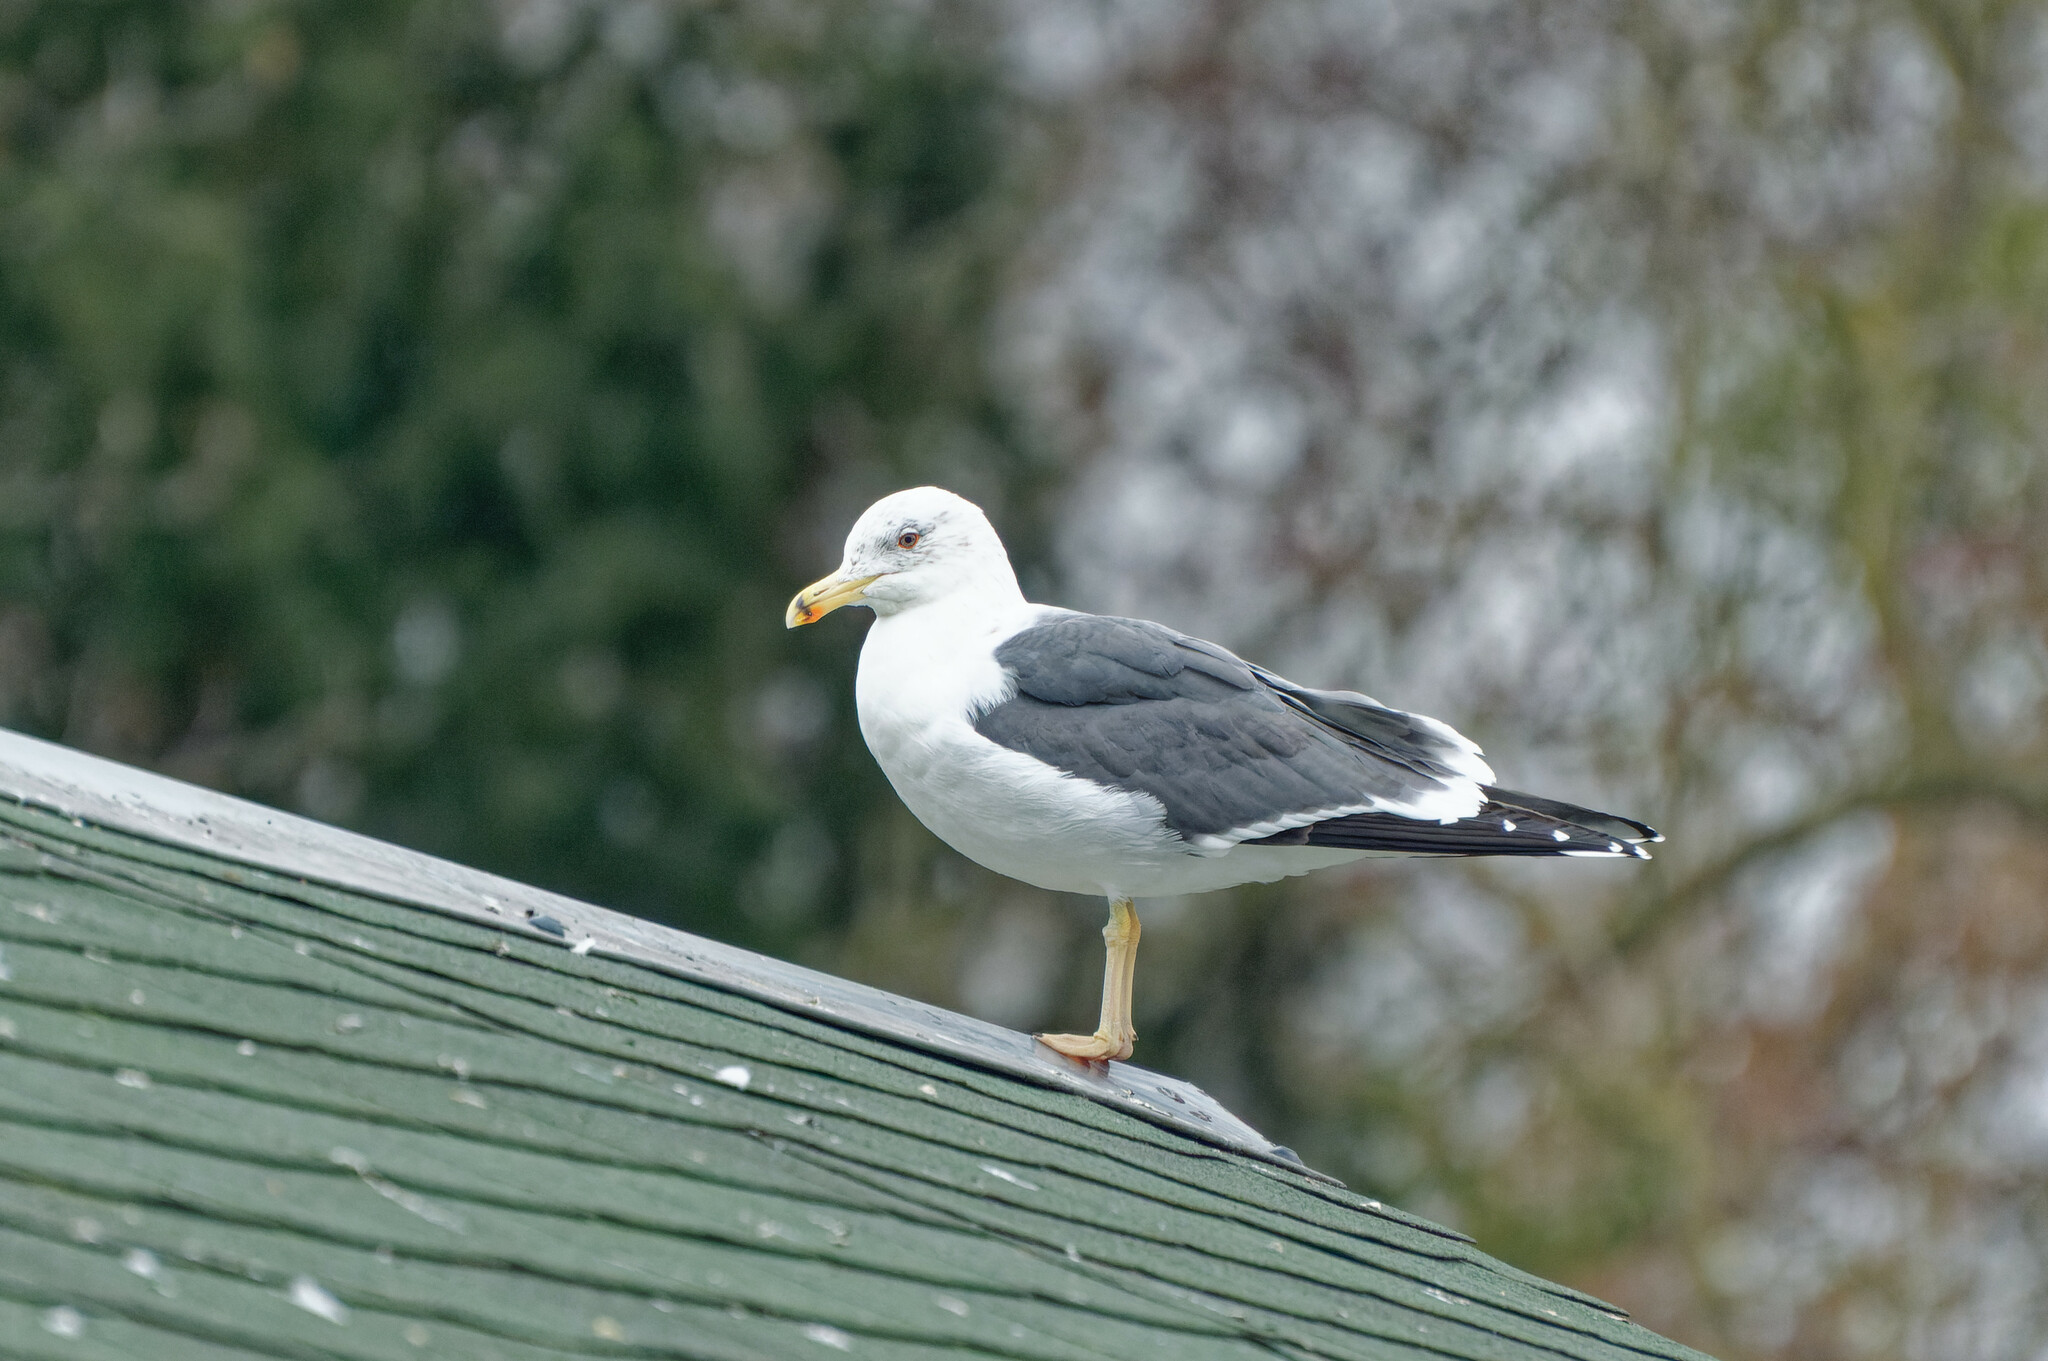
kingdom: Animalia
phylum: Chordata
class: Aves
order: Charadriiformes
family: Laridae
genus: Larus
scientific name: Larus fuscus
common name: Lesser black-backed gull
